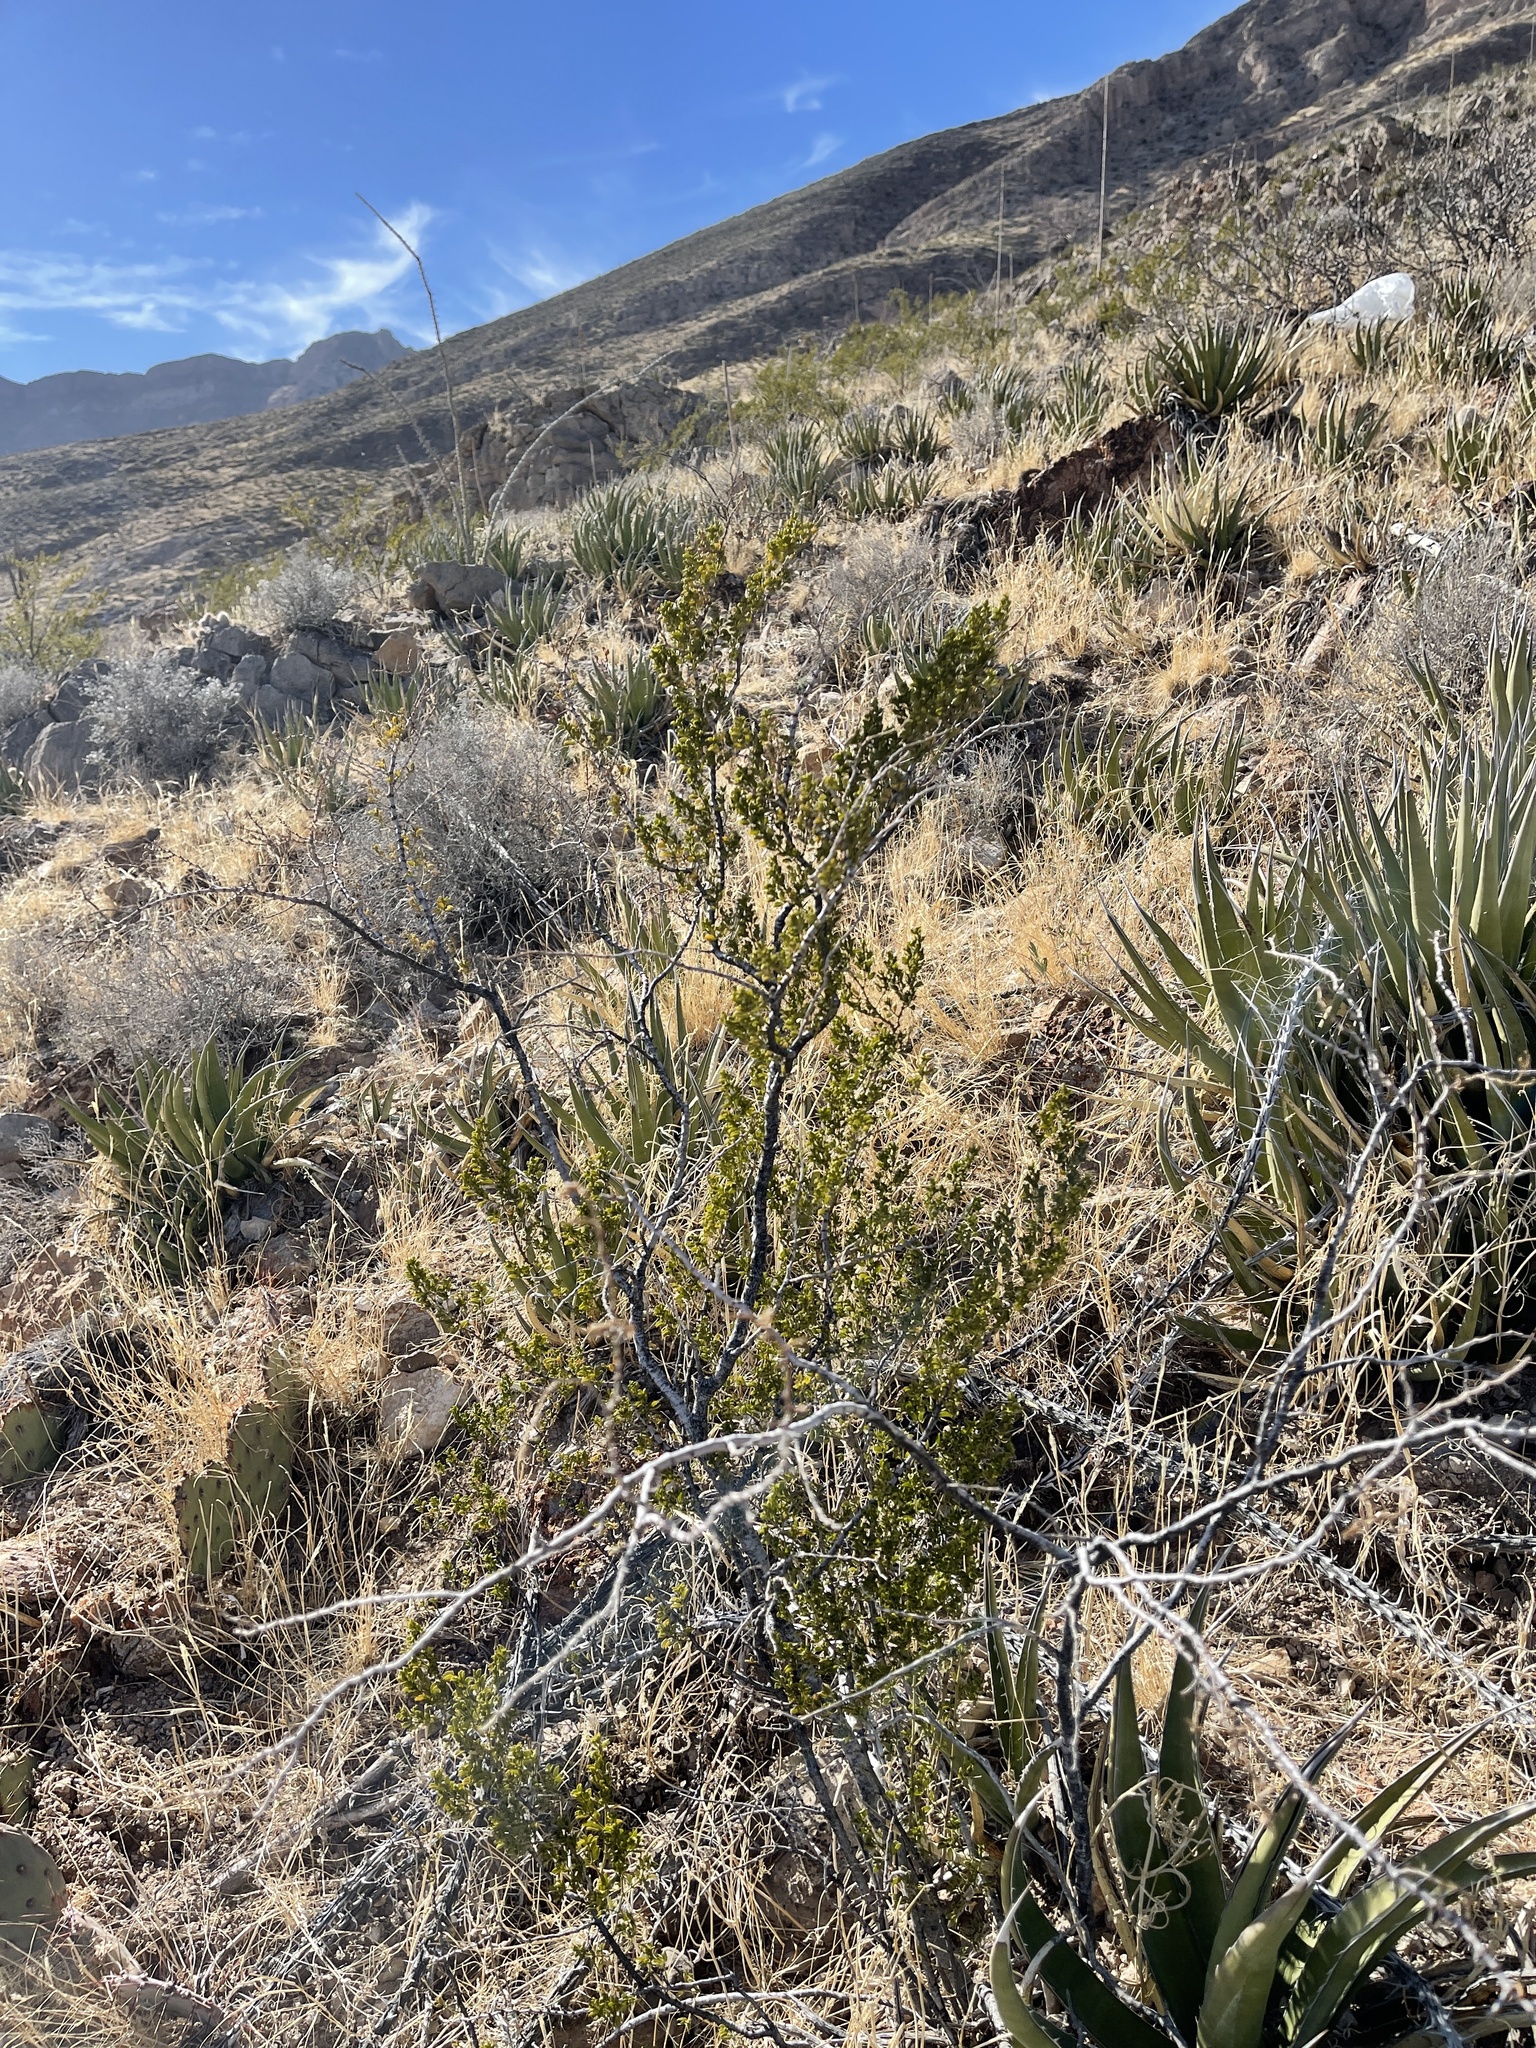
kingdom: Plantae
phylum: Tracheophyta
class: Magnoliopsida
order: Zygophyllales
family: Zygophyllaceae
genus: Larrea
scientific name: Larrea tridentata
